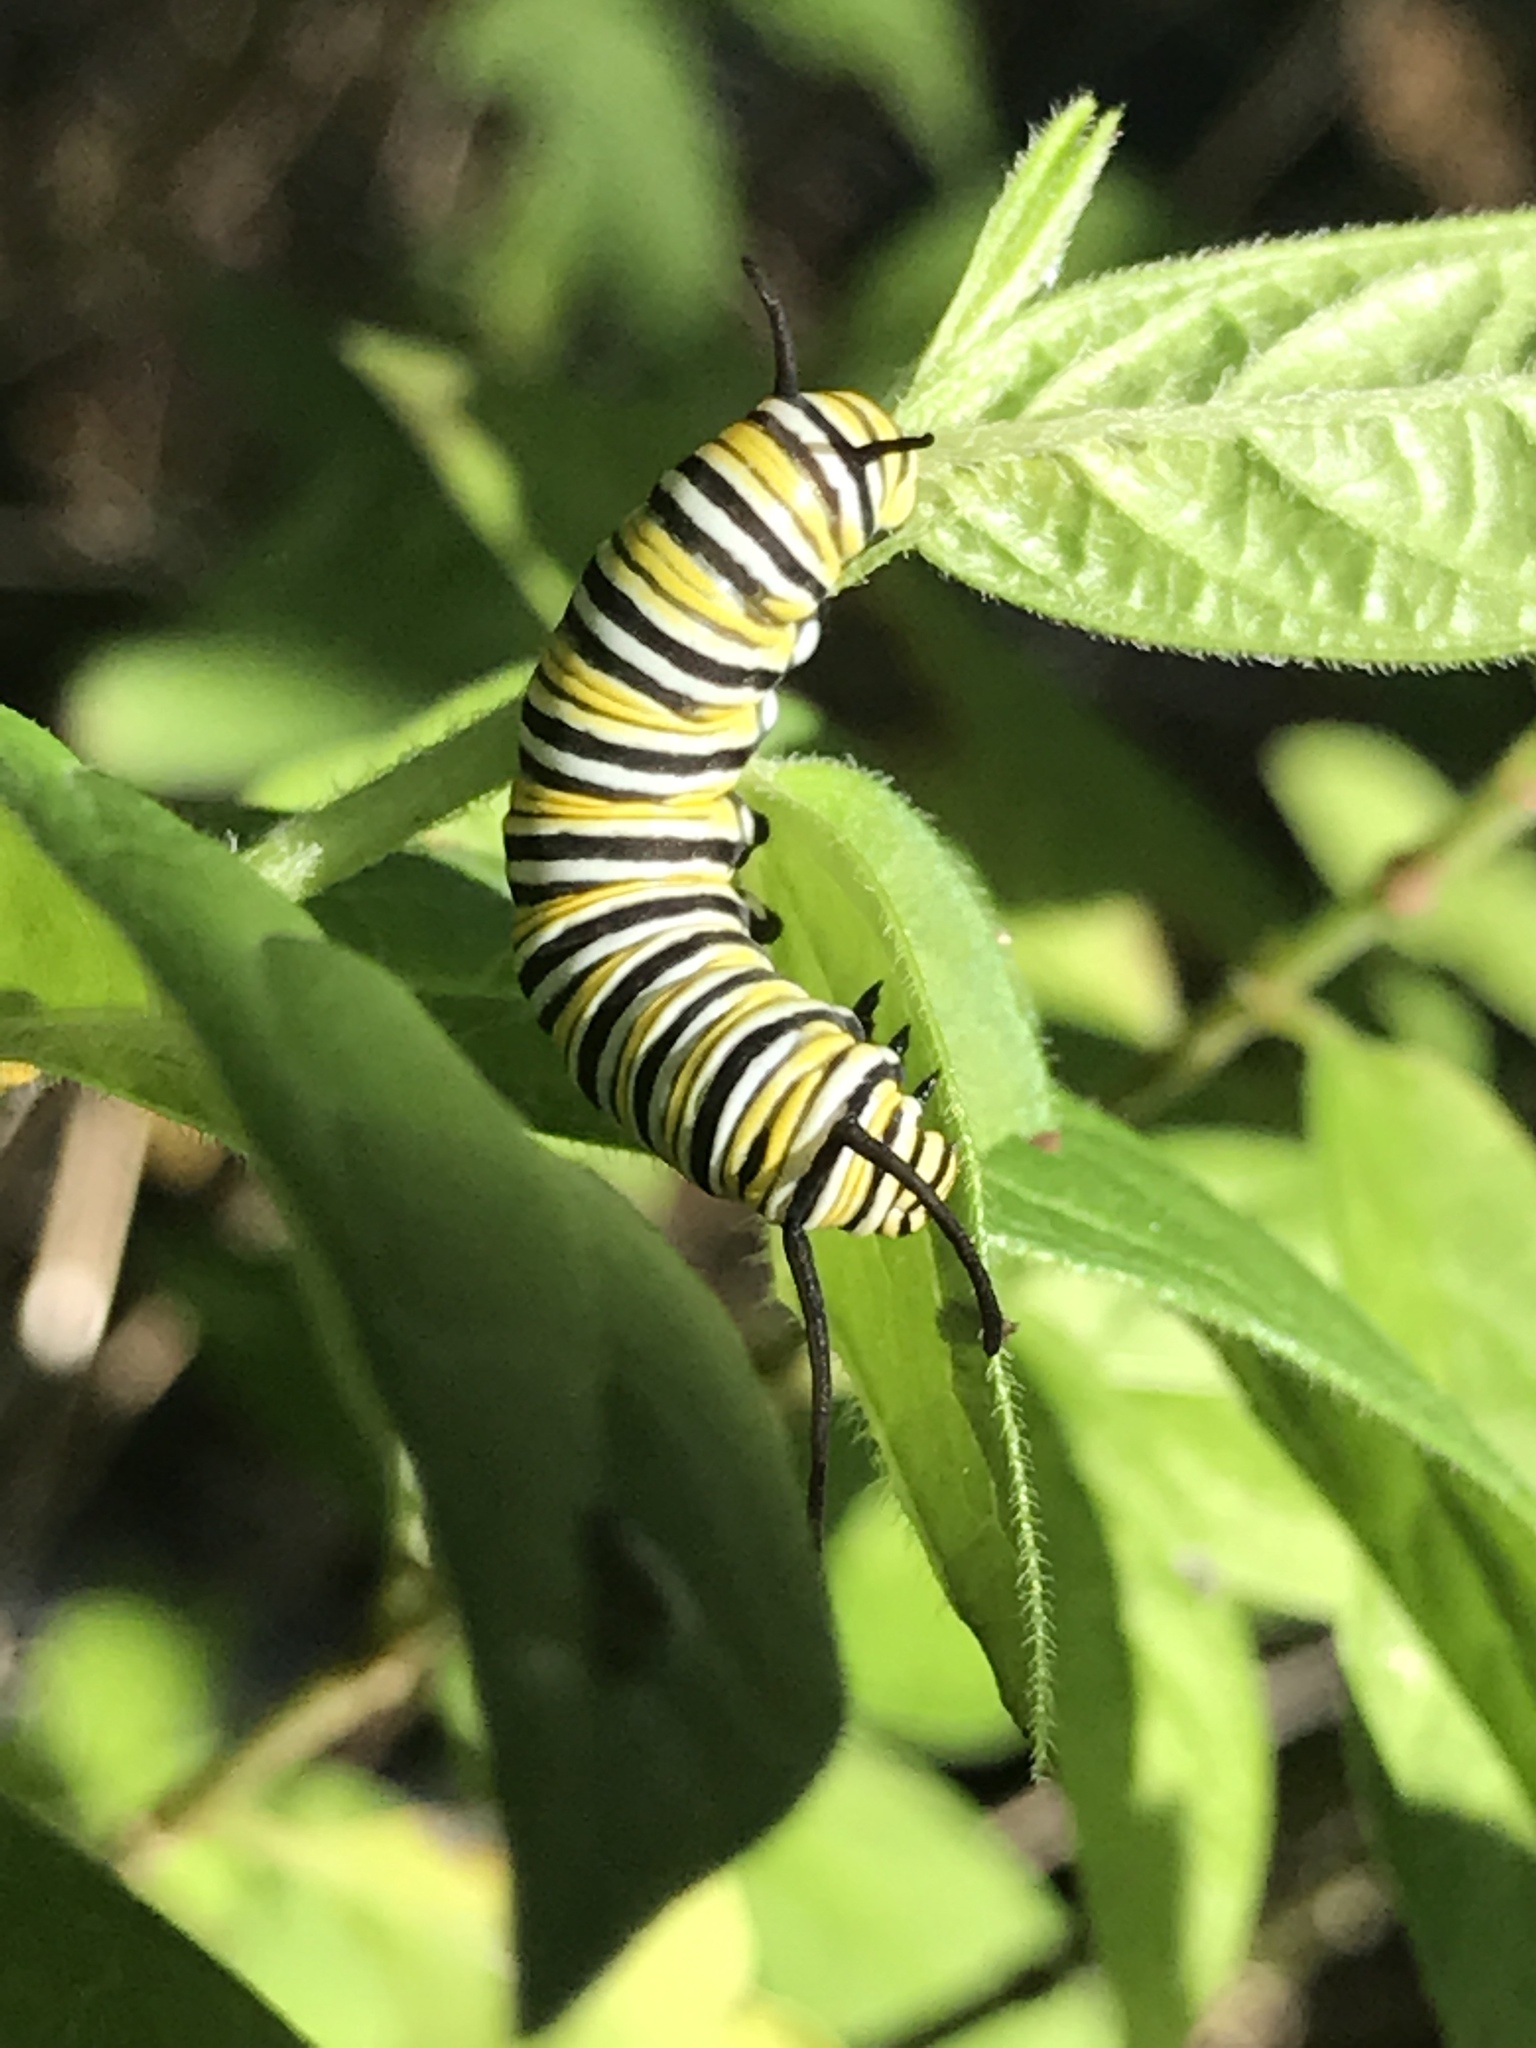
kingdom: Animalia
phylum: Arthropoda
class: Insecta
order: Lepidoptera
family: Nymphalidae
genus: Danaus
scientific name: Danaus plexippus
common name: Monarch
